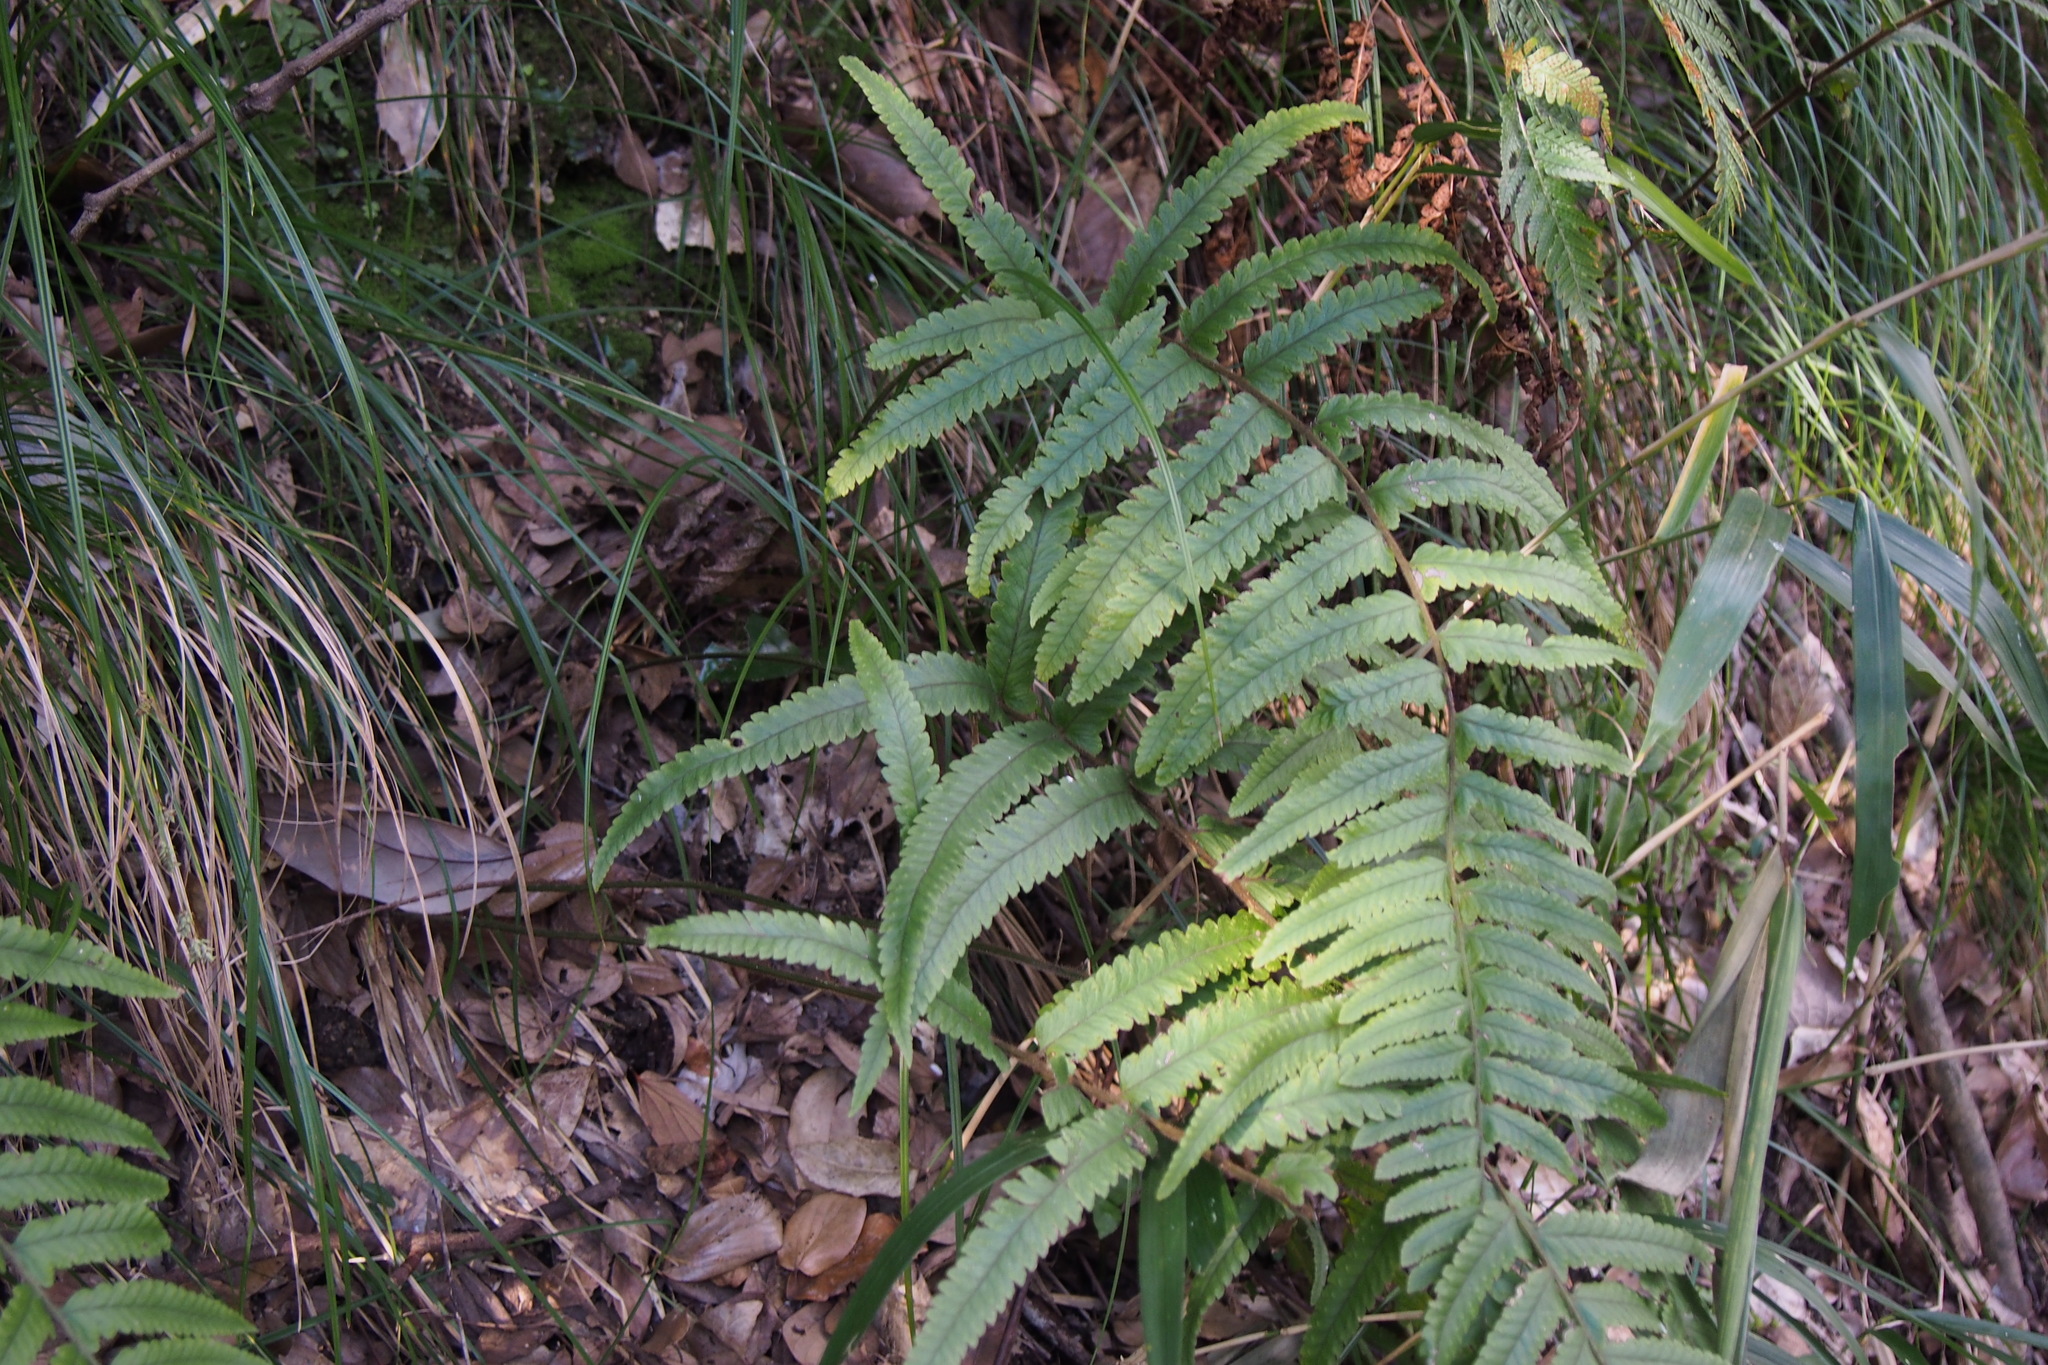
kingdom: Plantae
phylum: Tracheophyta
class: Polypodiopsida
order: Polypodiales
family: Dennstaedtiaceae
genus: Microlepia
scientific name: Microlepia marginata
